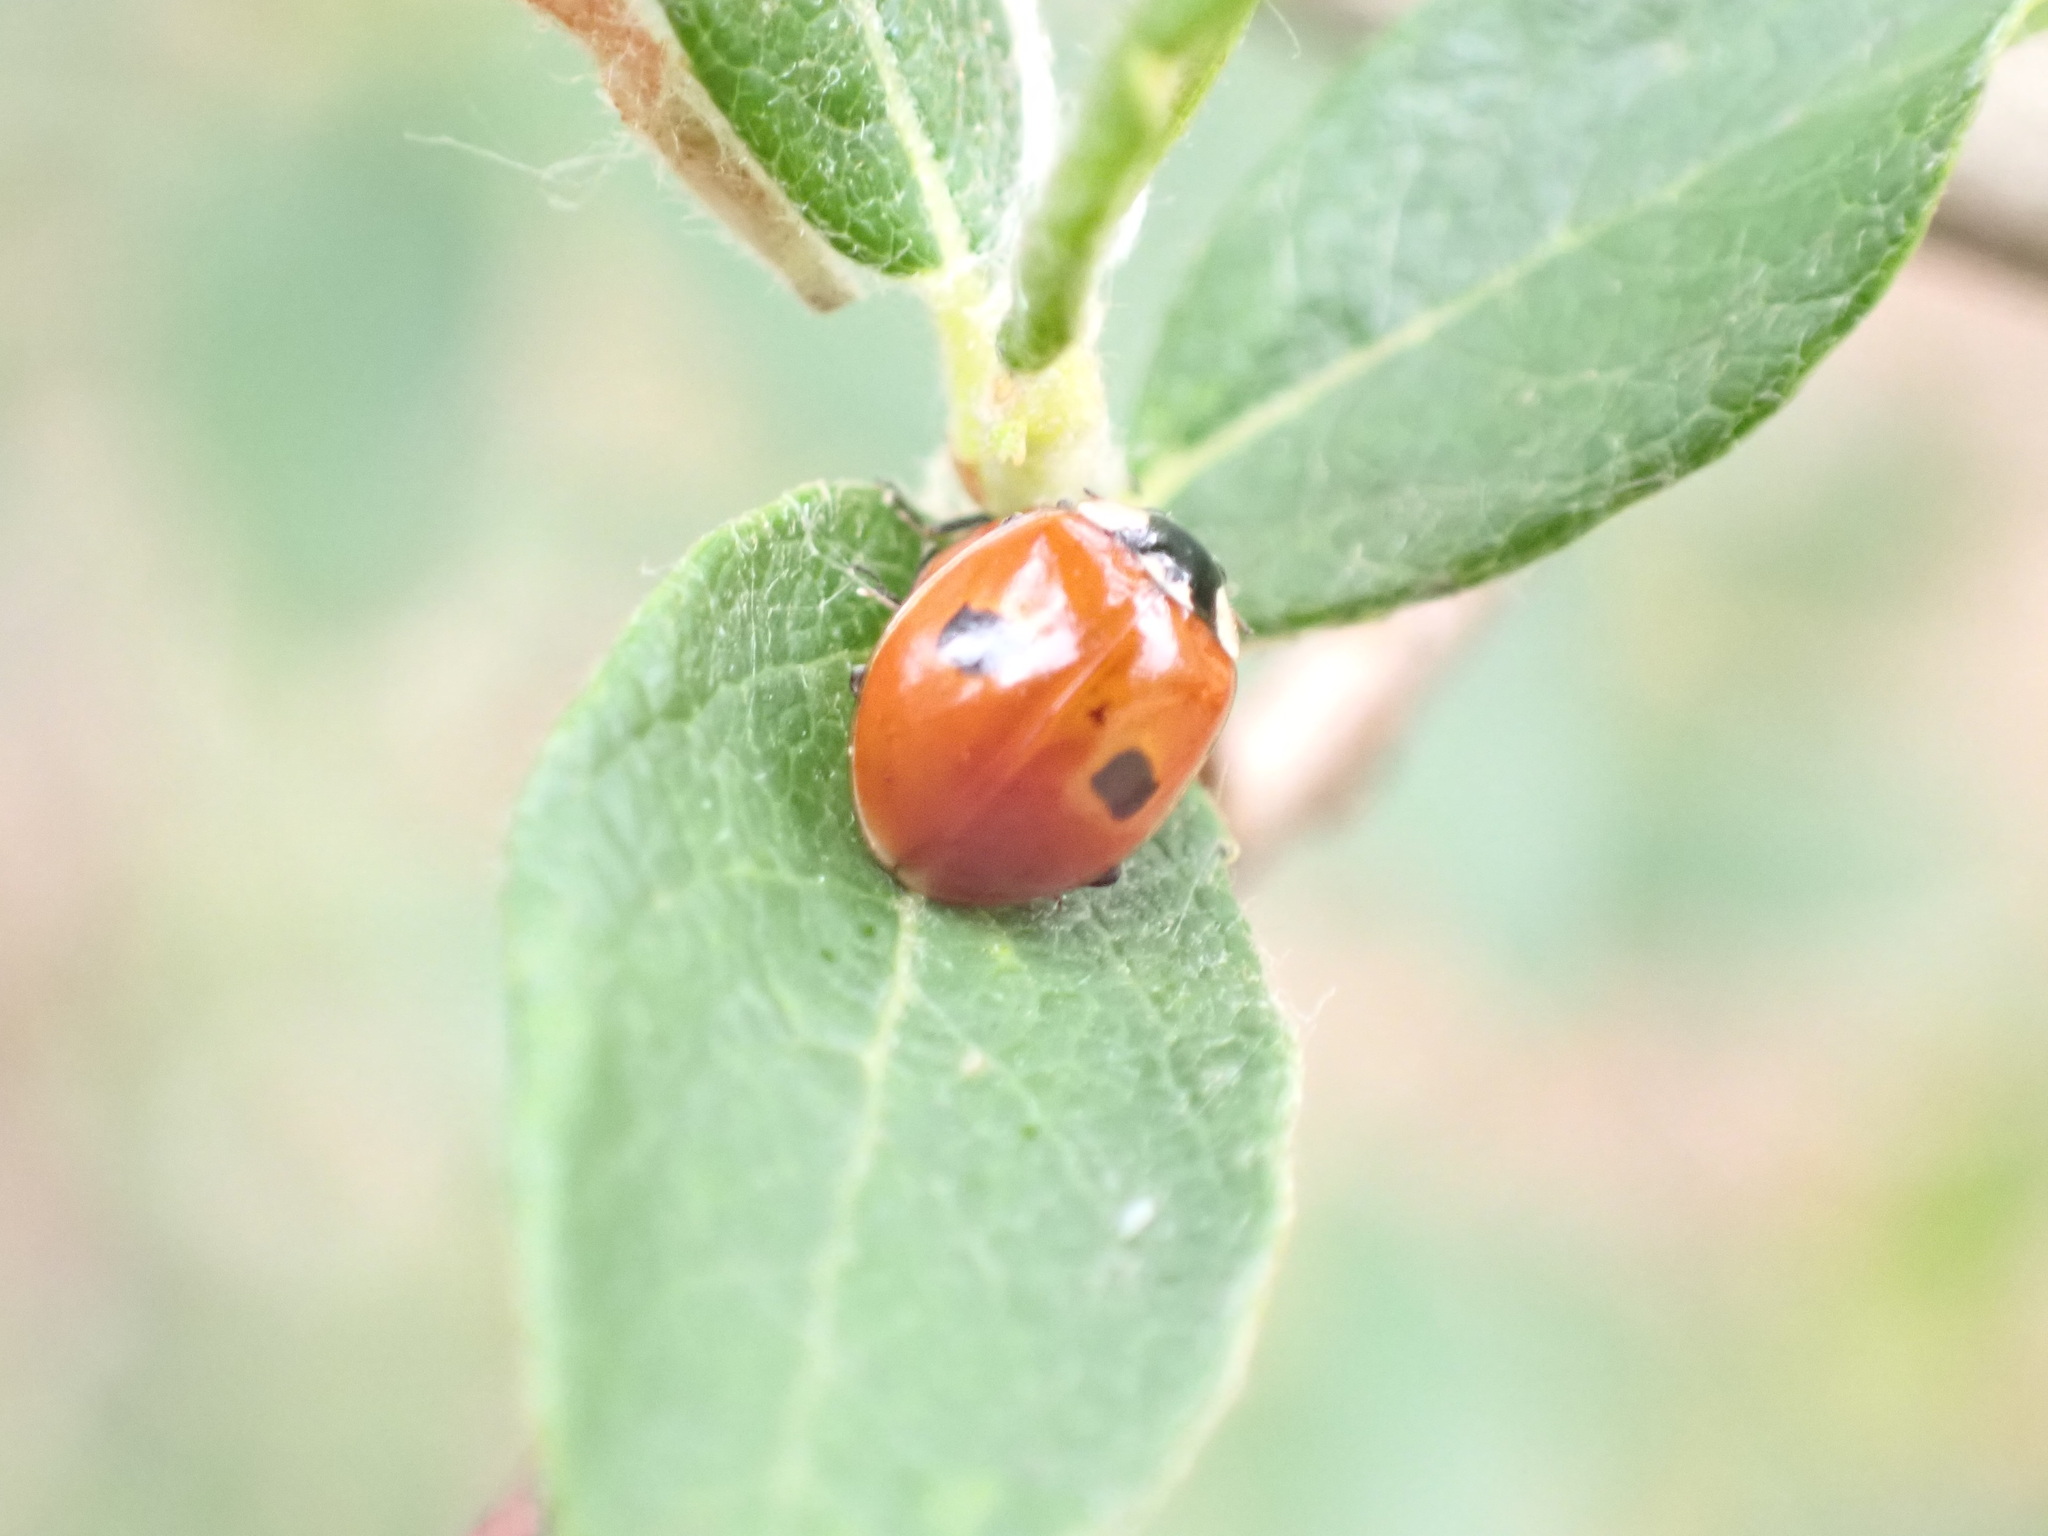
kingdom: Animalia
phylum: Arthropoda
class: Insecta
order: Coleoptera
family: Coccinellidae
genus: Adalia
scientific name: Adalia bipunctata
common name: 2-spot ladybird
